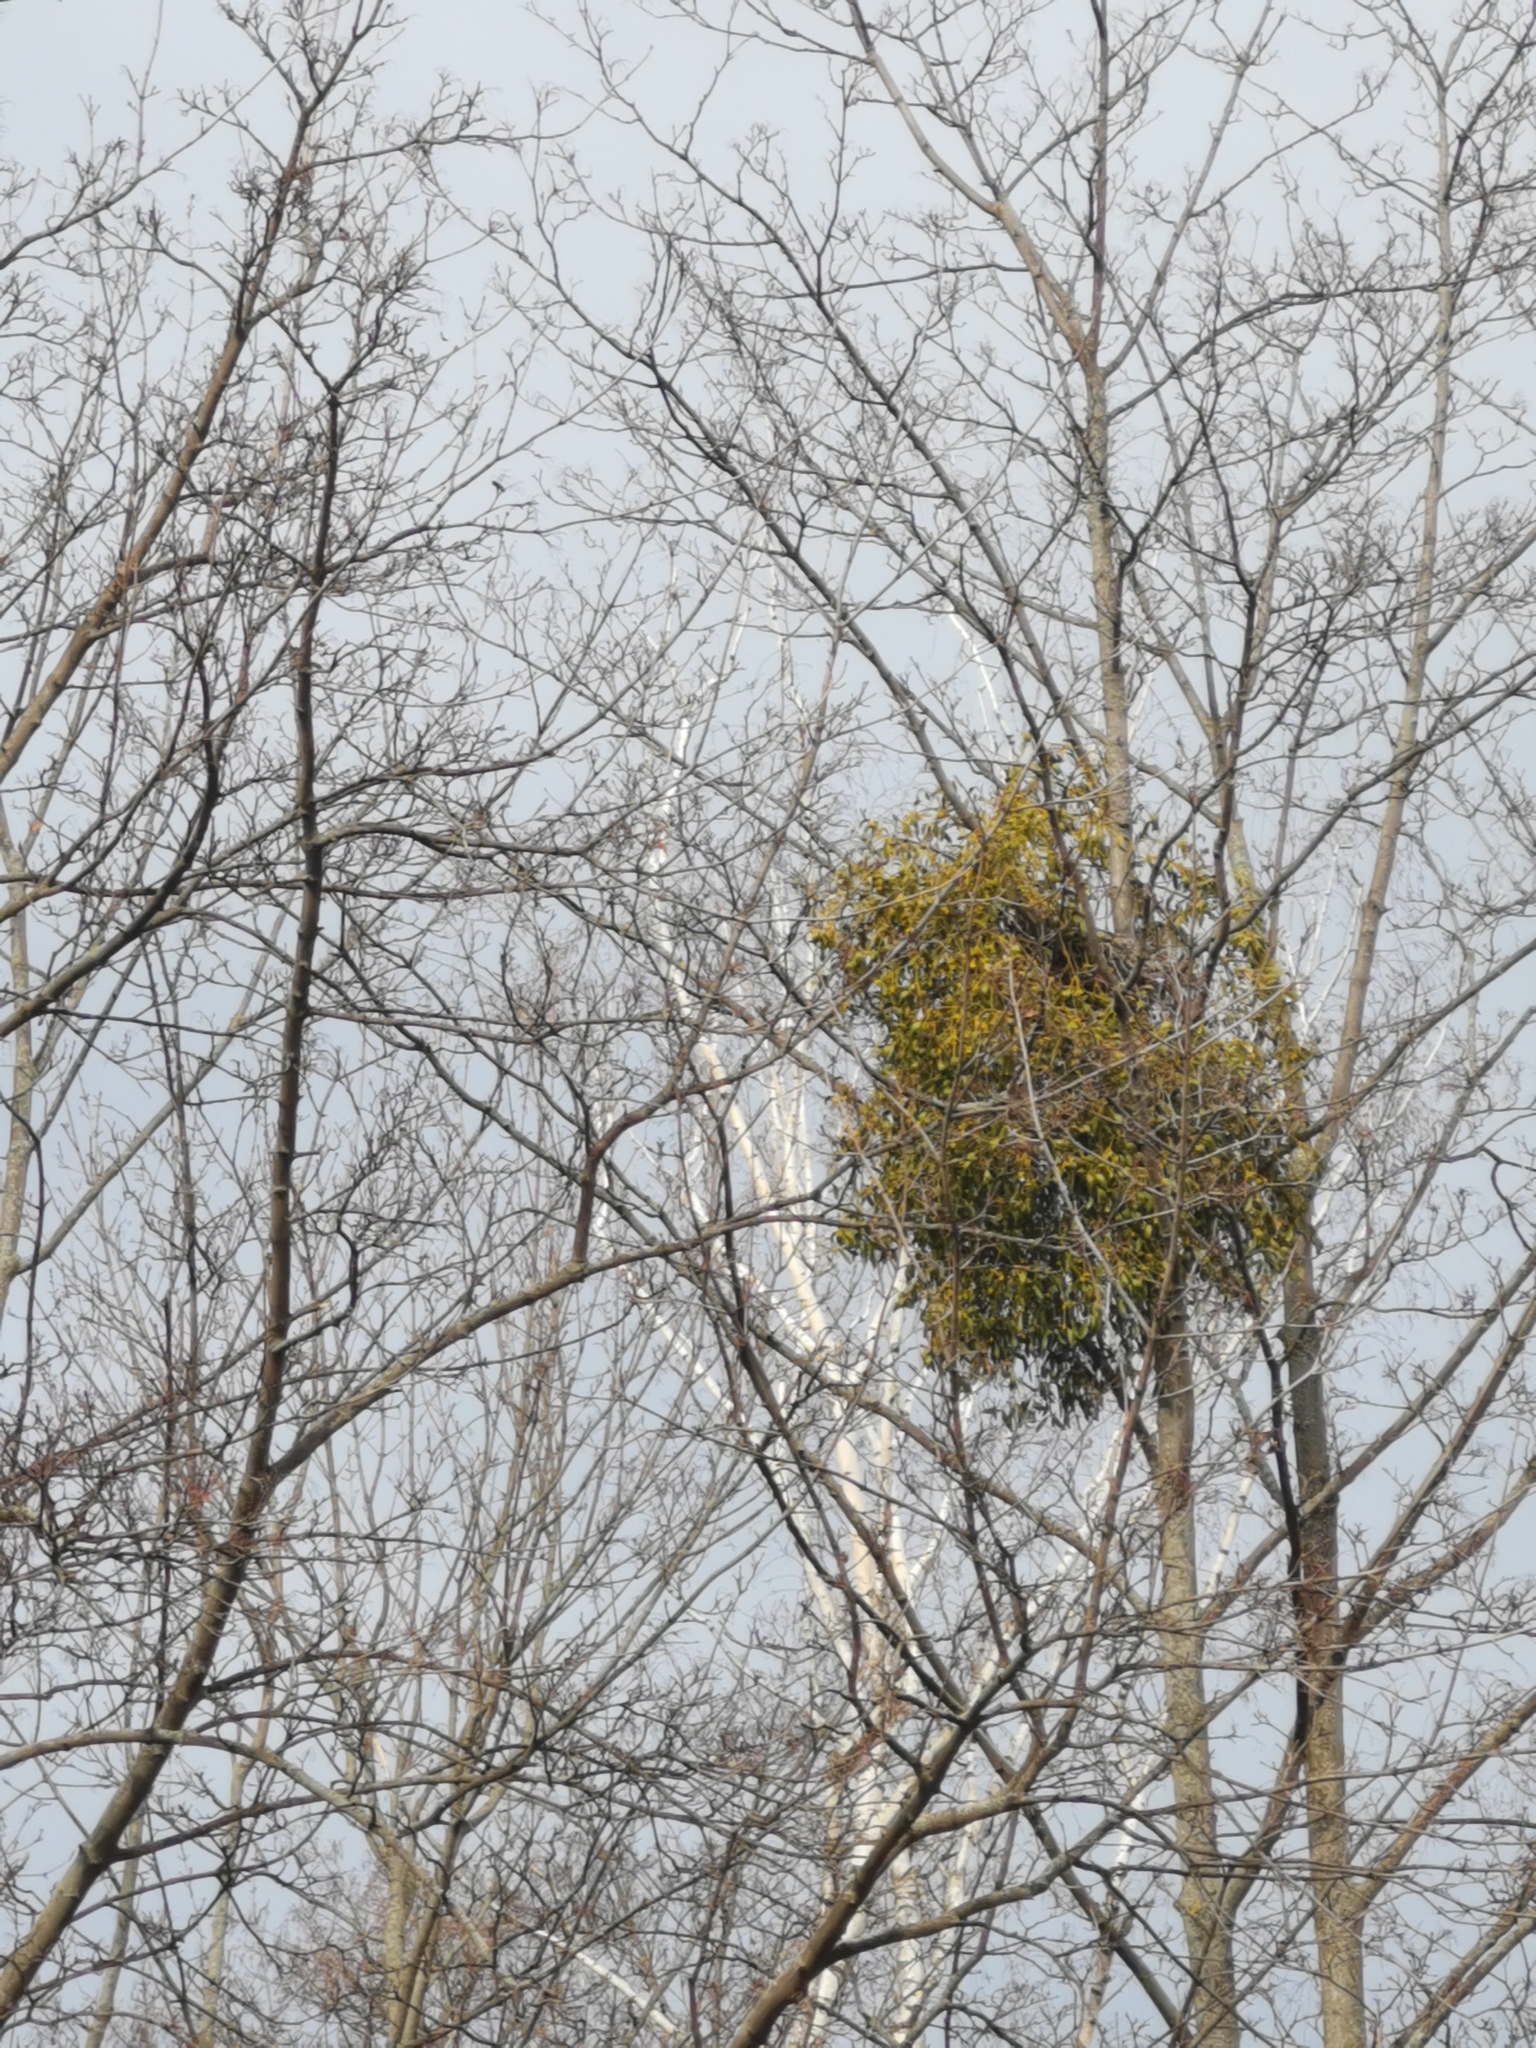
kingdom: Plantae
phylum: Tracheophyta
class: Magnoliopsida
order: Santalales
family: Viscaceae
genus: Viscum
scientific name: Viscum album
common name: Mistletoe
